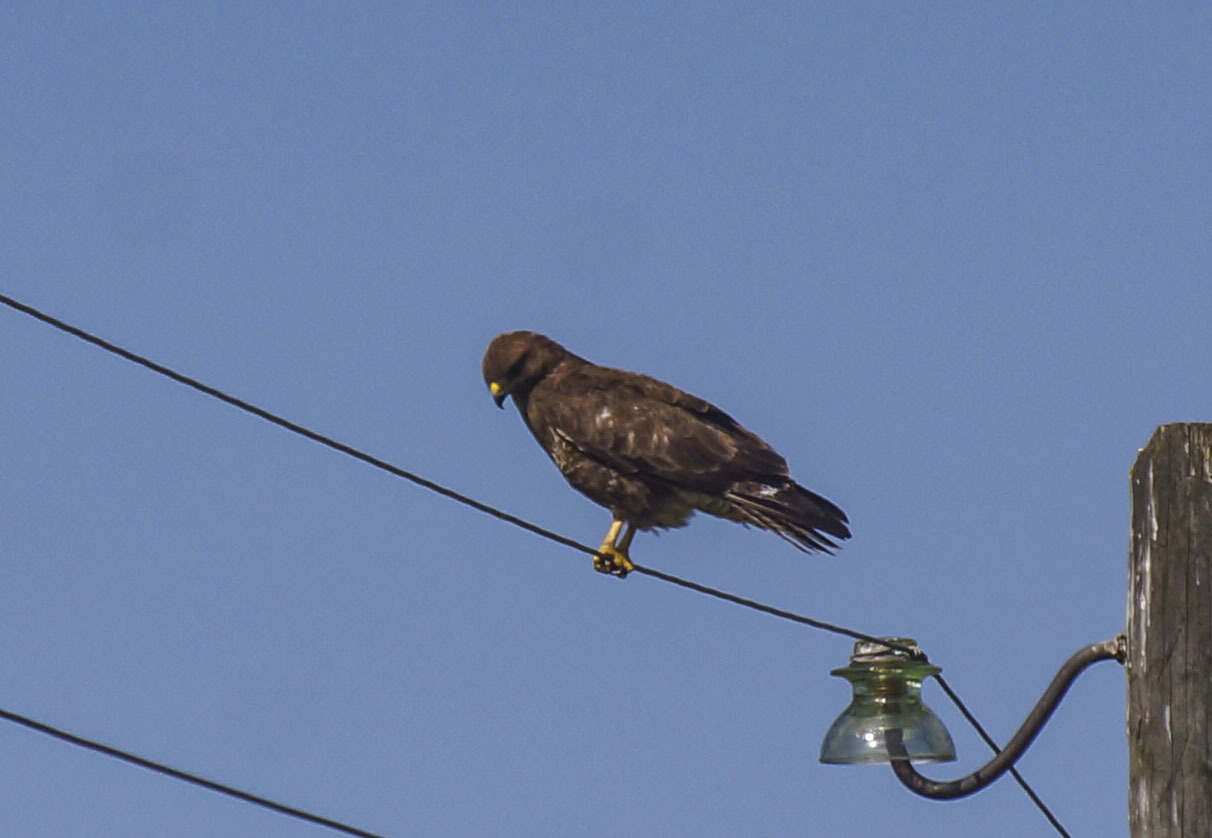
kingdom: Animalia
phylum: Chordata
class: Aves
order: Accipitriformes
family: Accipitridae
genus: Buteo
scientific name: Buteo buteo
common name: Common buzzard
